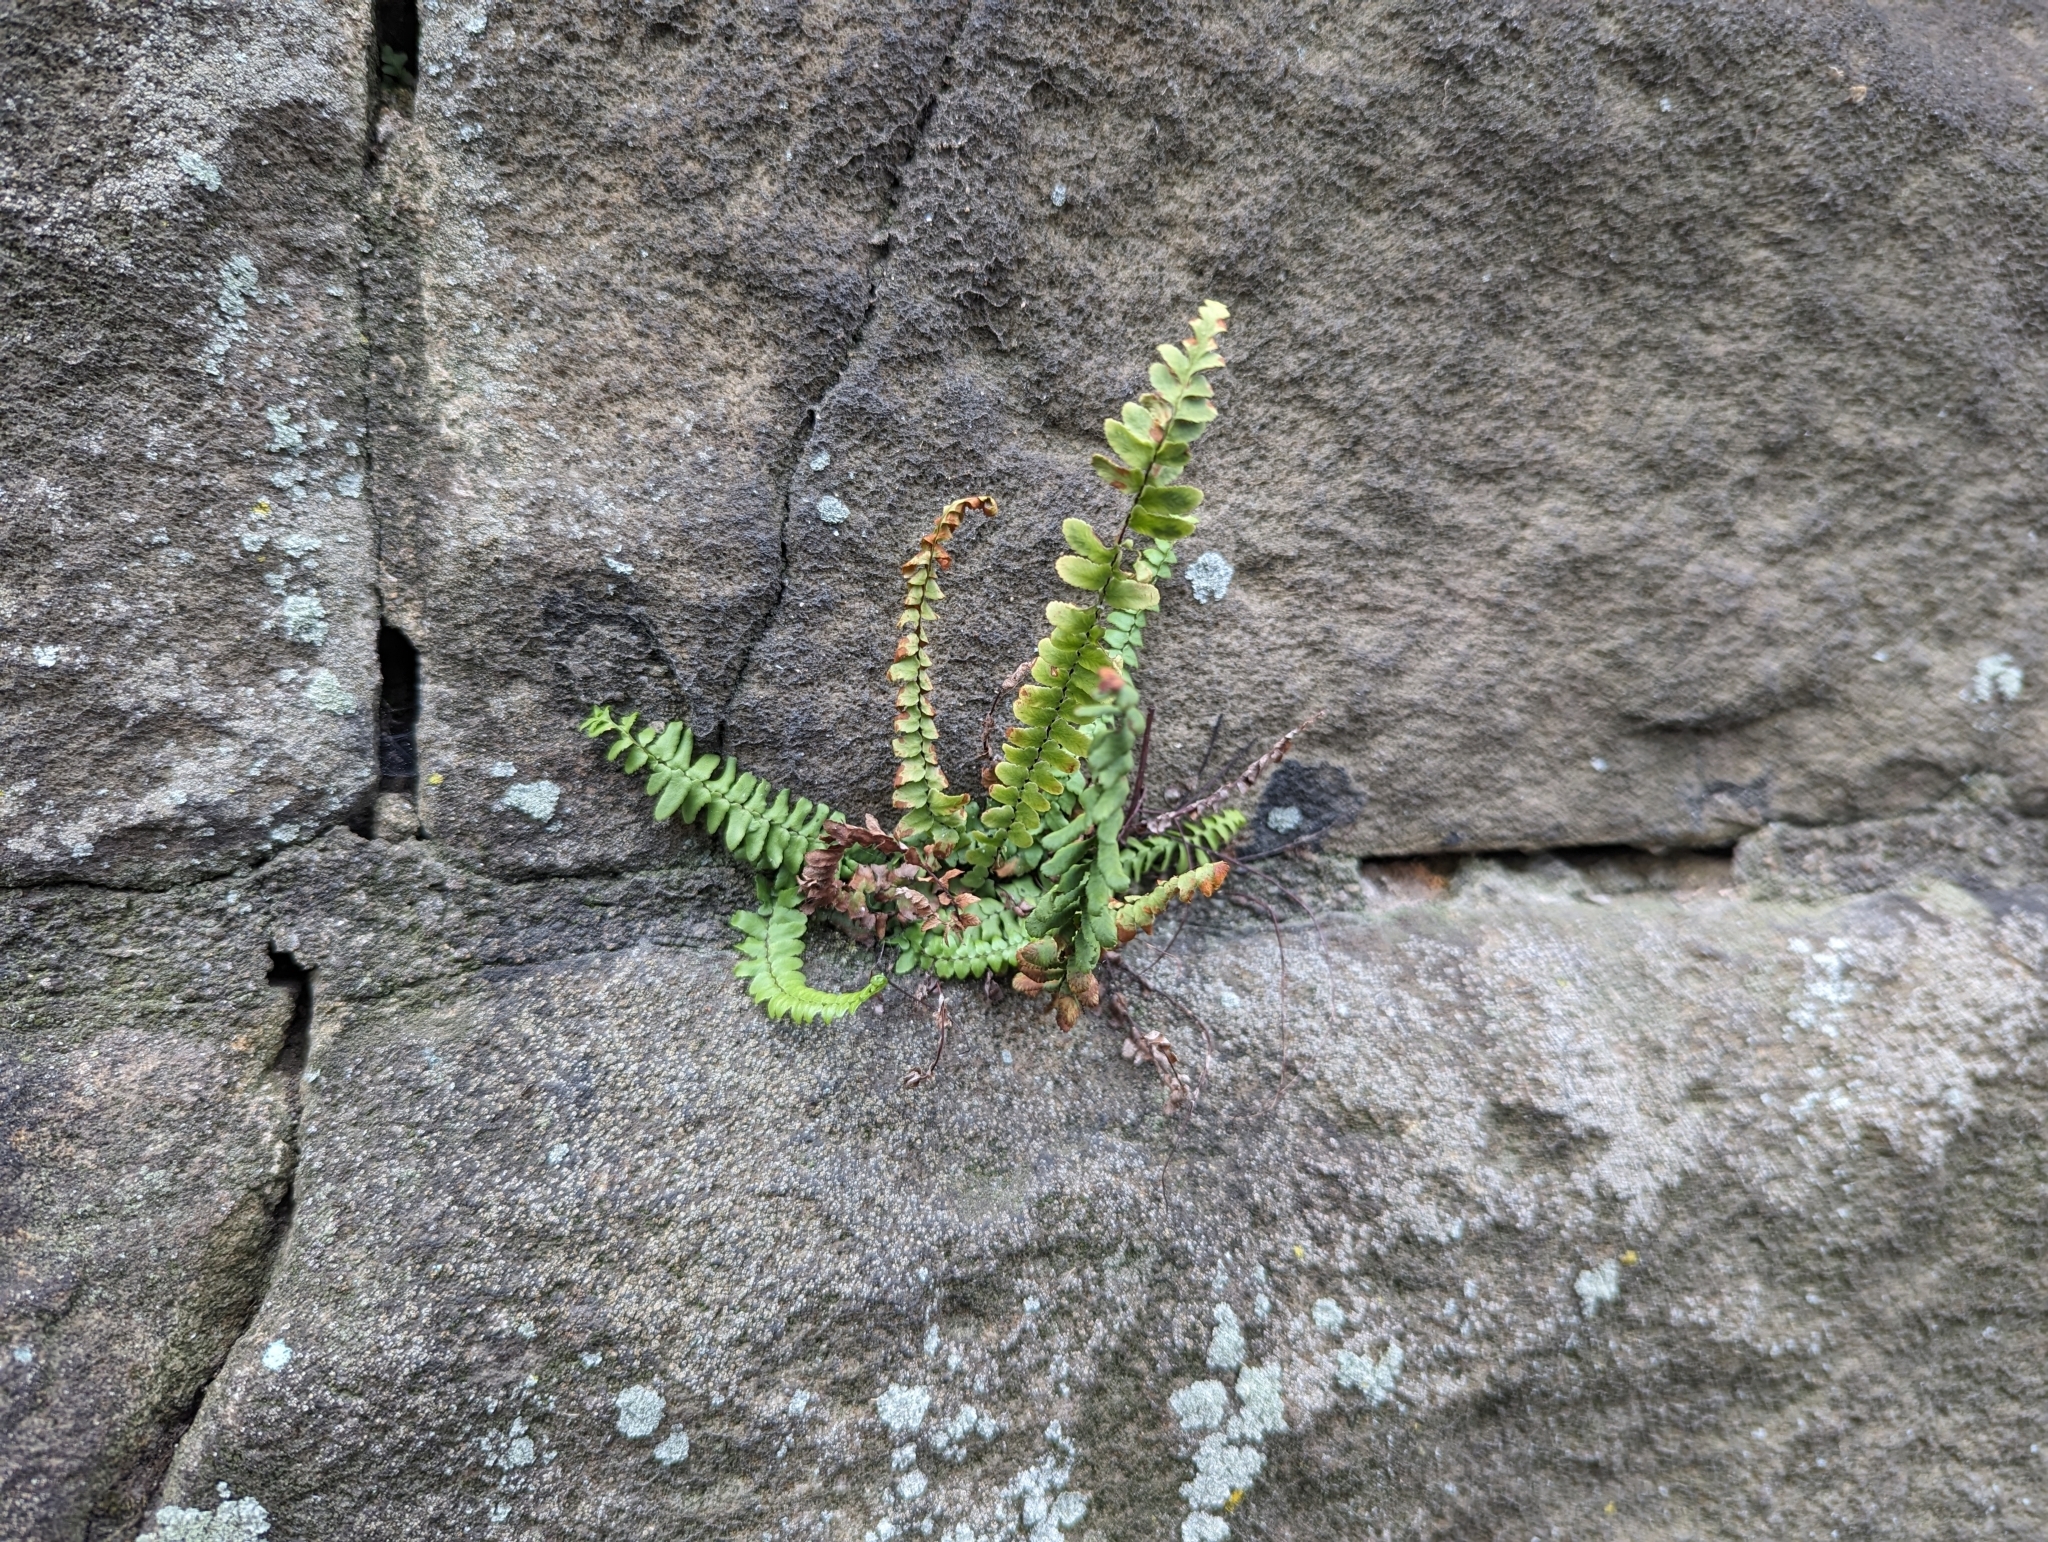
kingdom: Plantae
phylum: Tracheophyta
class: Polypodiopsida
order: Polypodiales
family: Aspleniaceae
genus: Asplenium
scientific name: Asplenium platyneuron
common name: Ebony spleenwort
